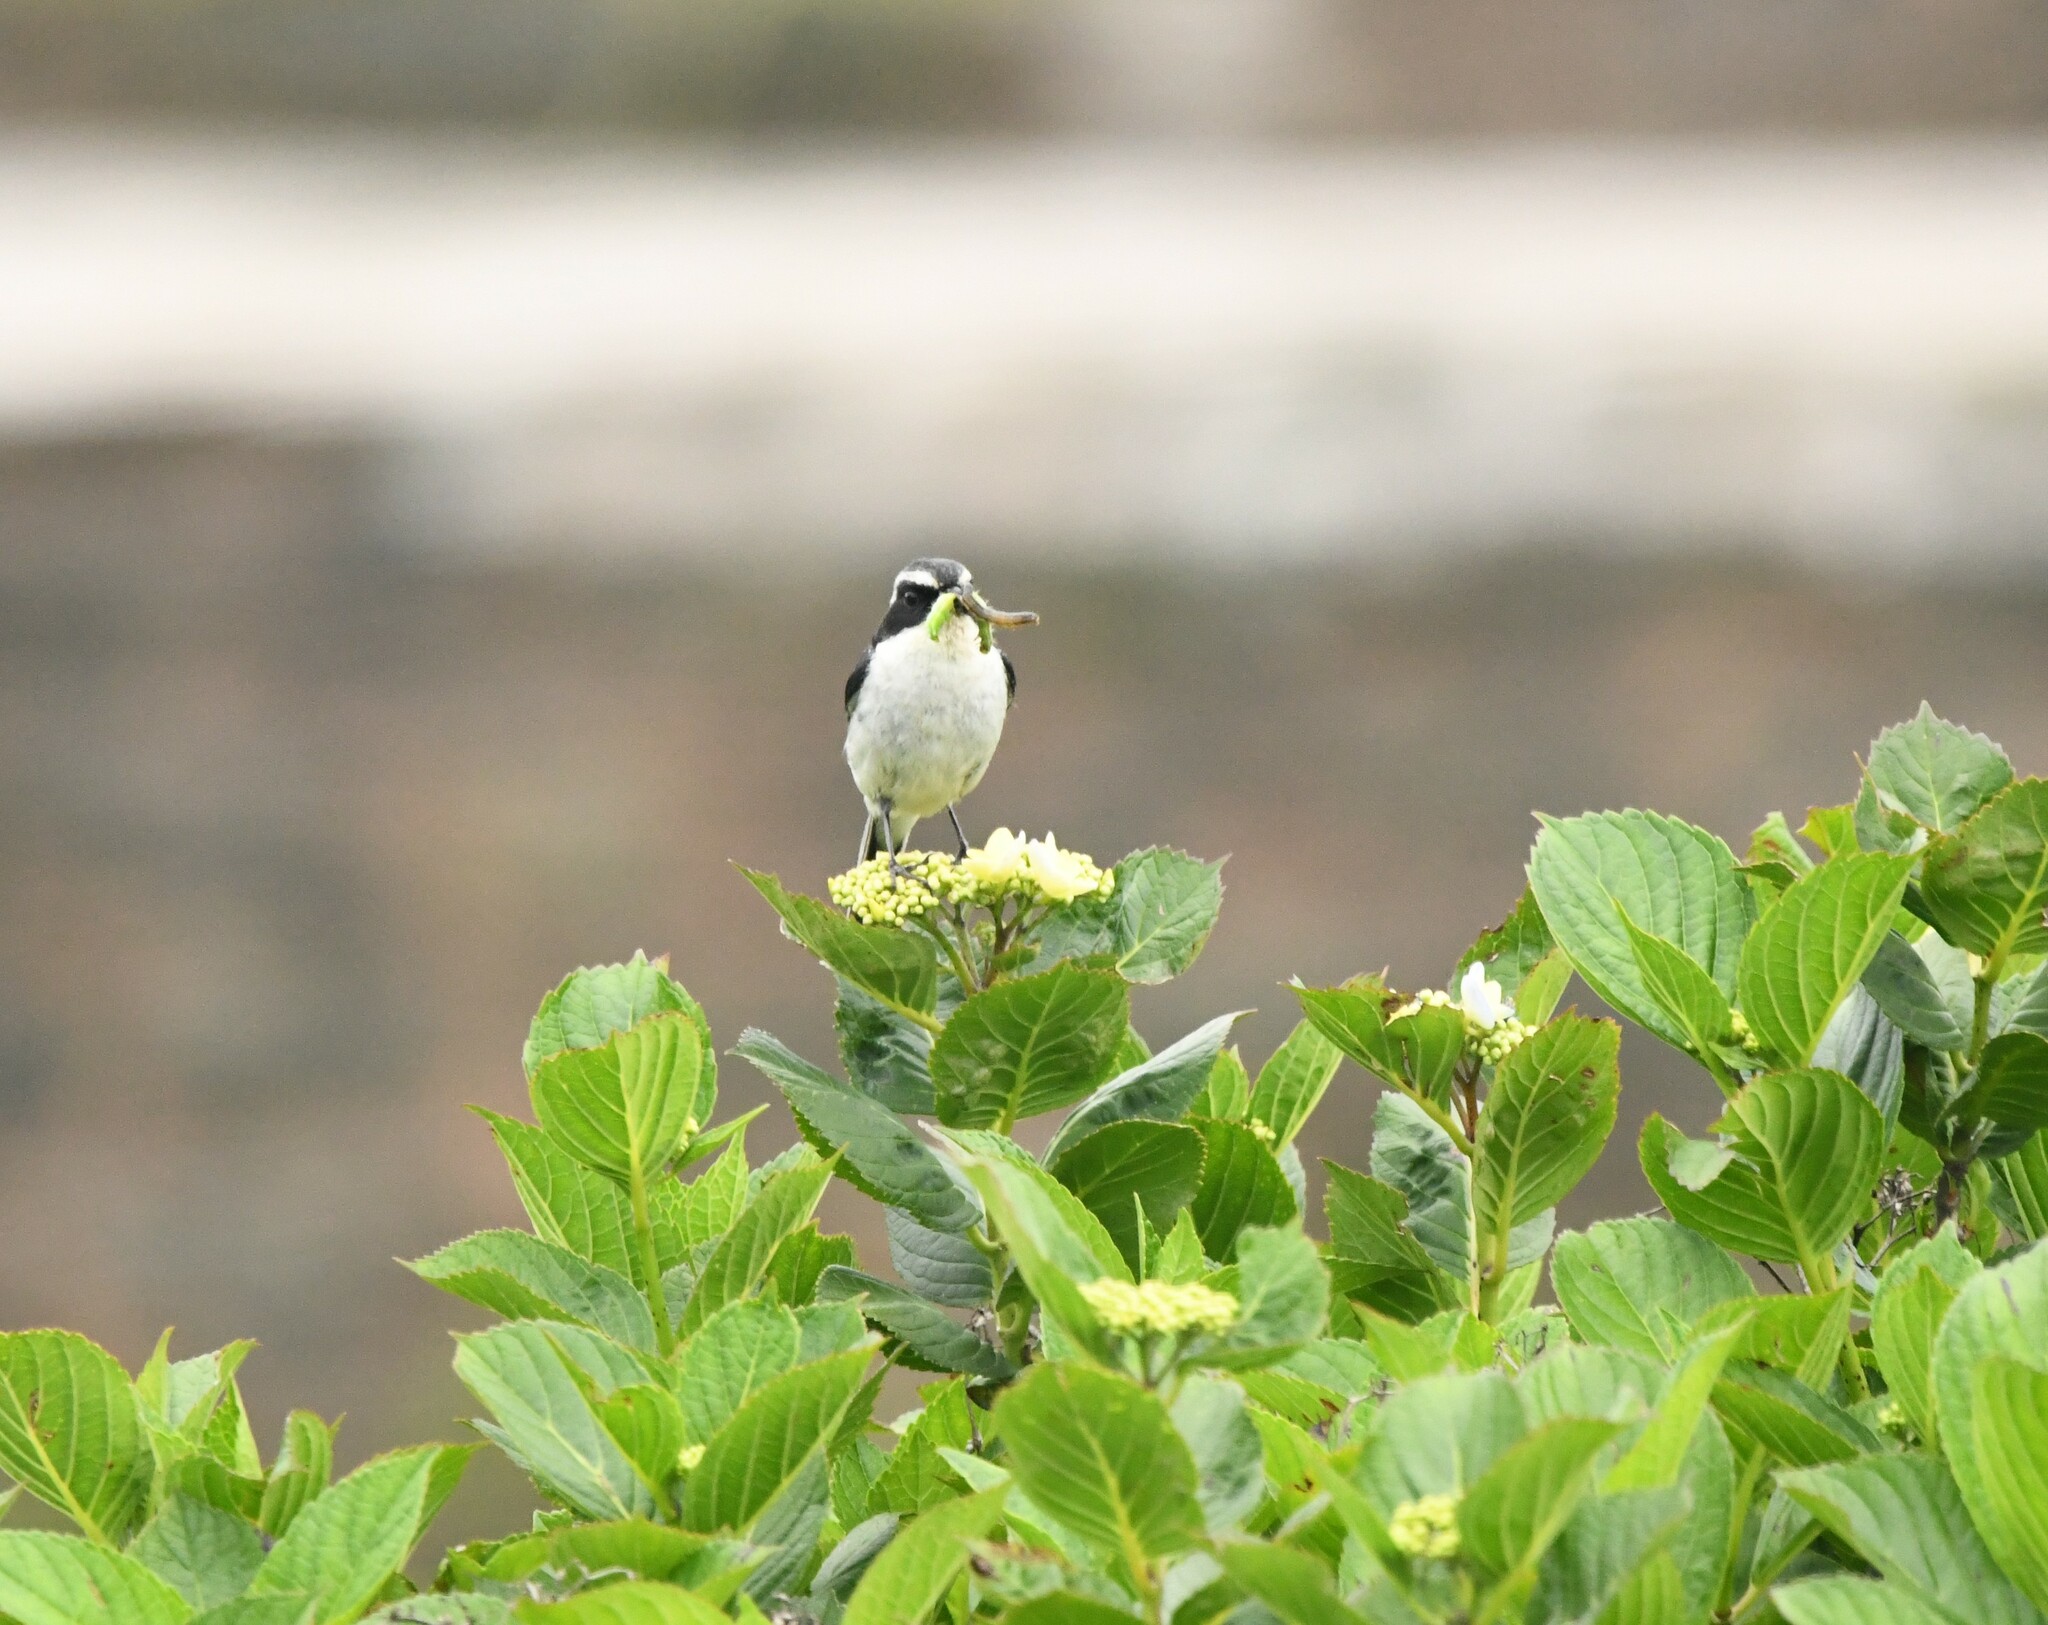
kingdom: Animalia
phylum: Chordata
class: Aves
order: Passeriformes
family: Muscicapidae
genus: Saxicola
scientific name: Saxicola ferreus
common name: Grey bush chat
